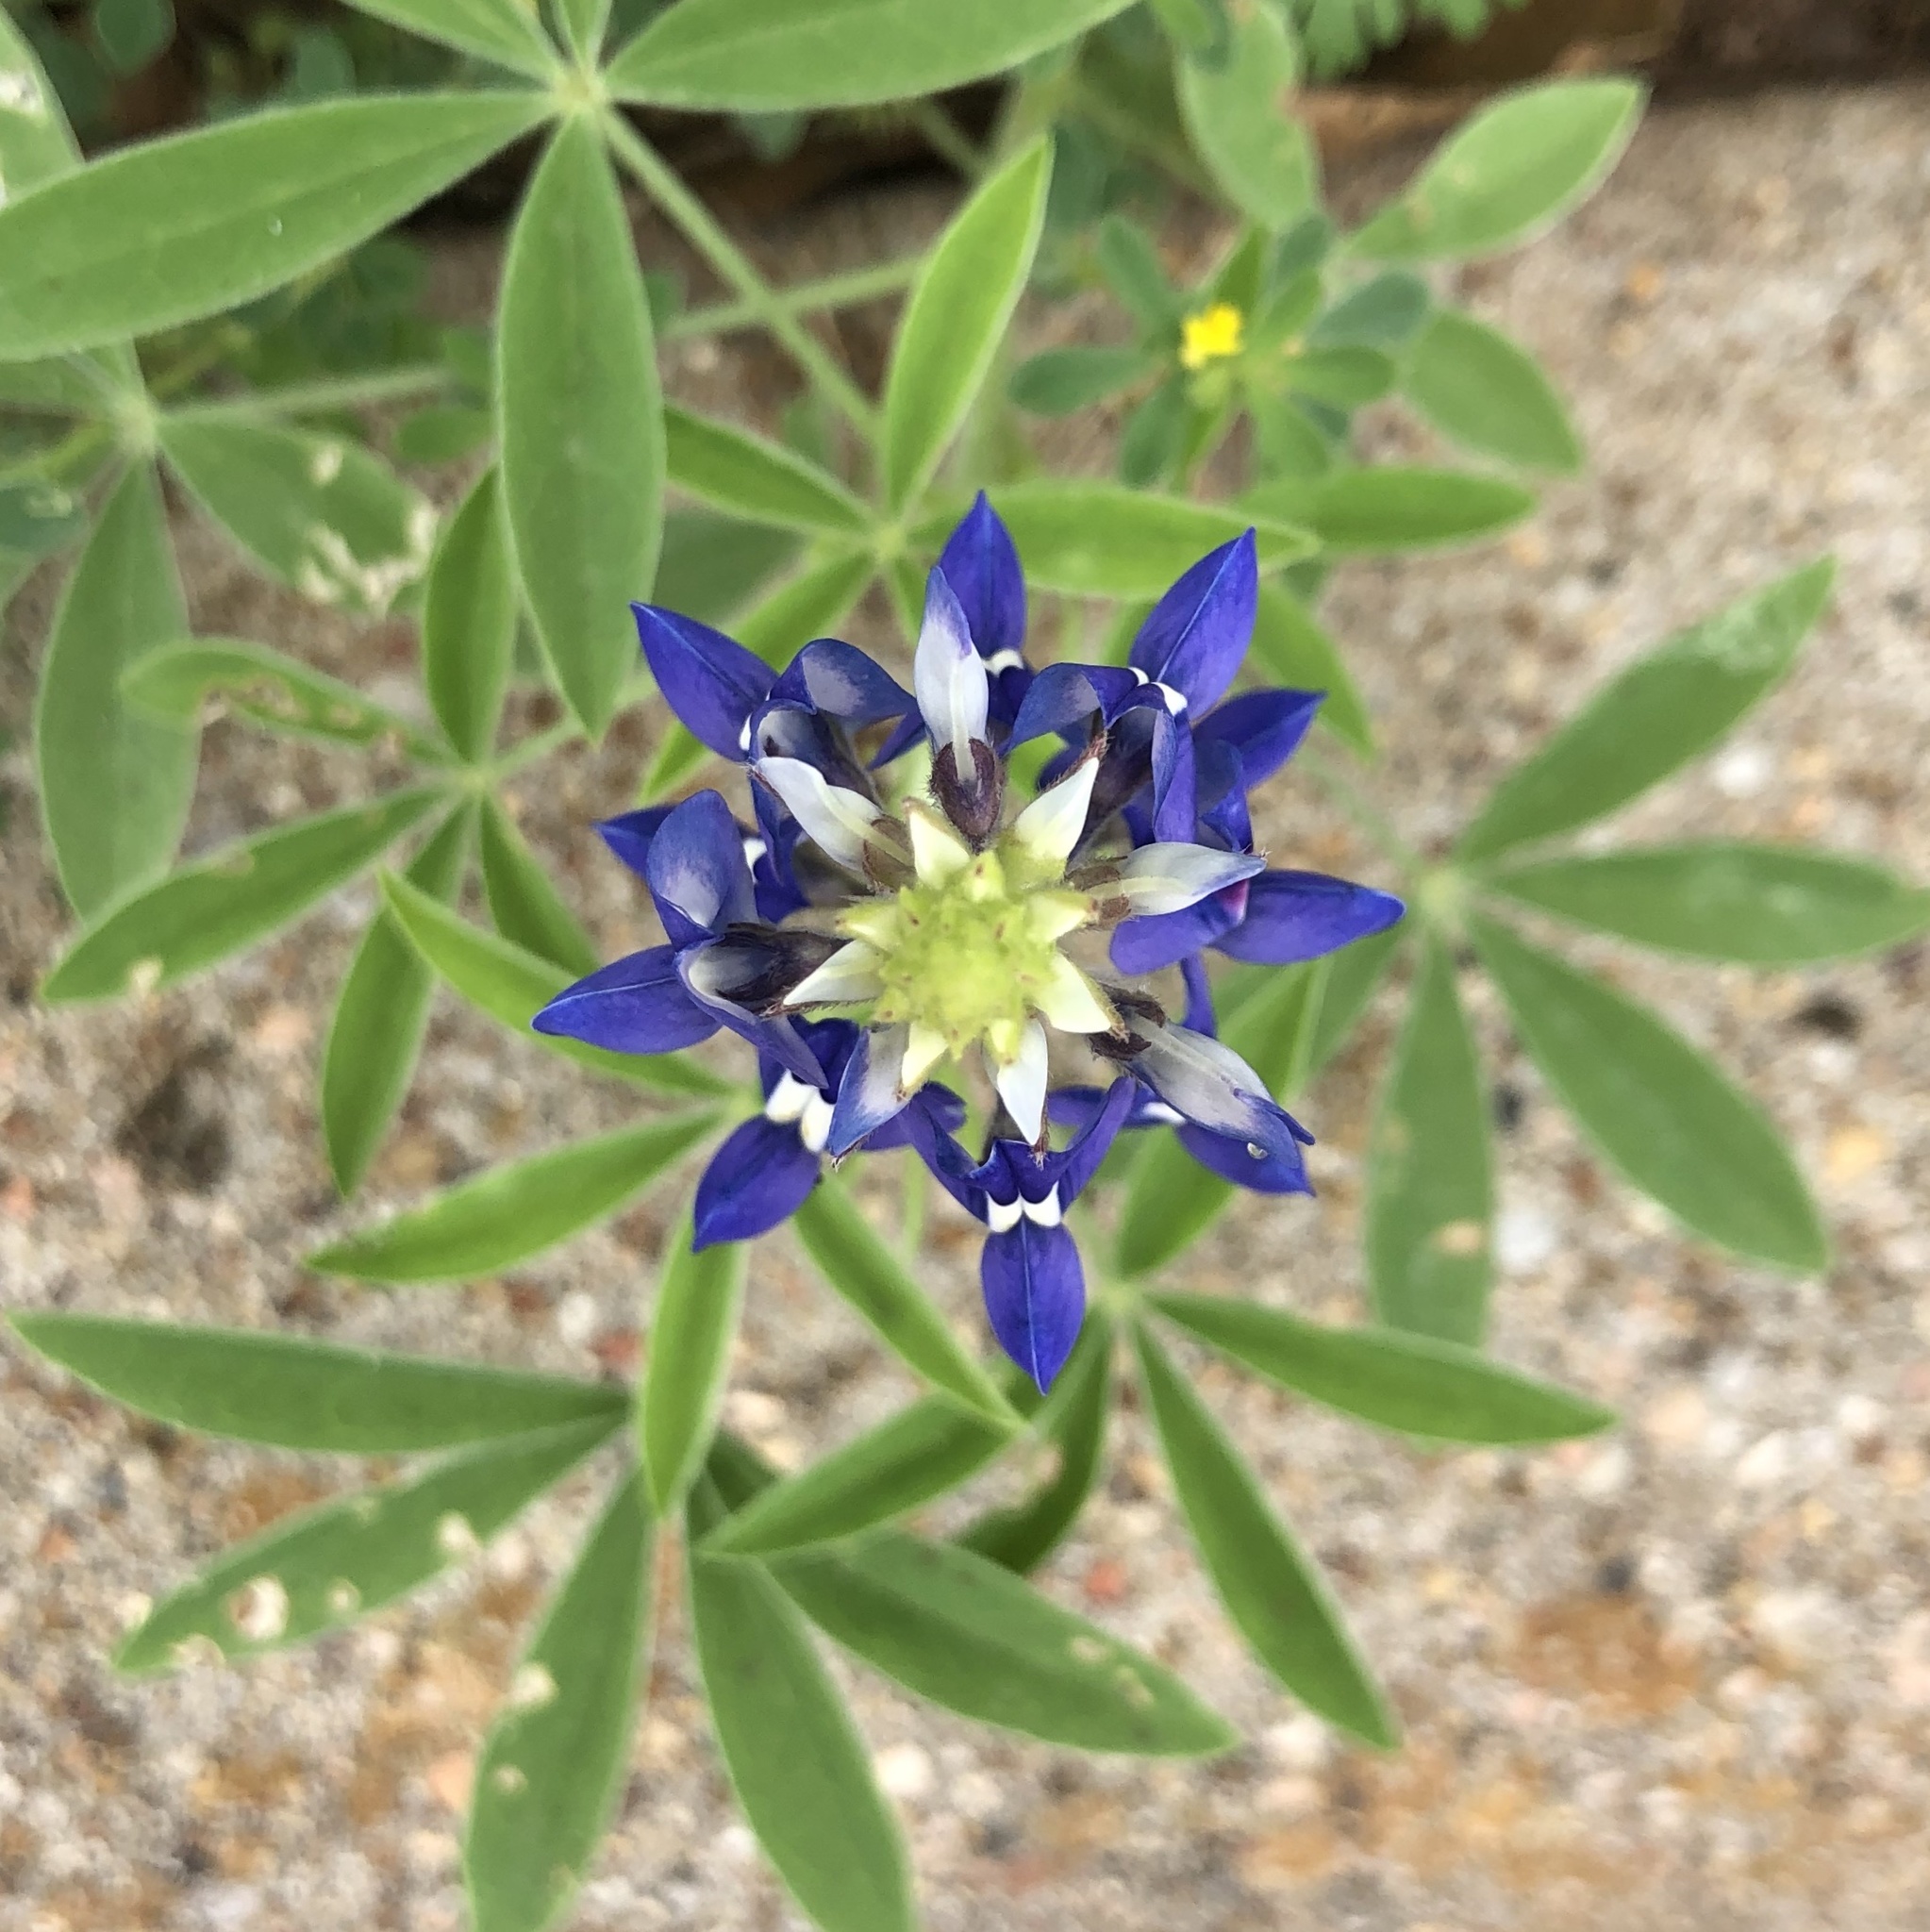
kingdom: Plantae
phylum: Tracheophyta
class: Magnoliopsida
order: Fabales
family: Fabaceae
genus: Lupinus
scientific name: Lupinus texensis
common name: Texas bluebonnet
